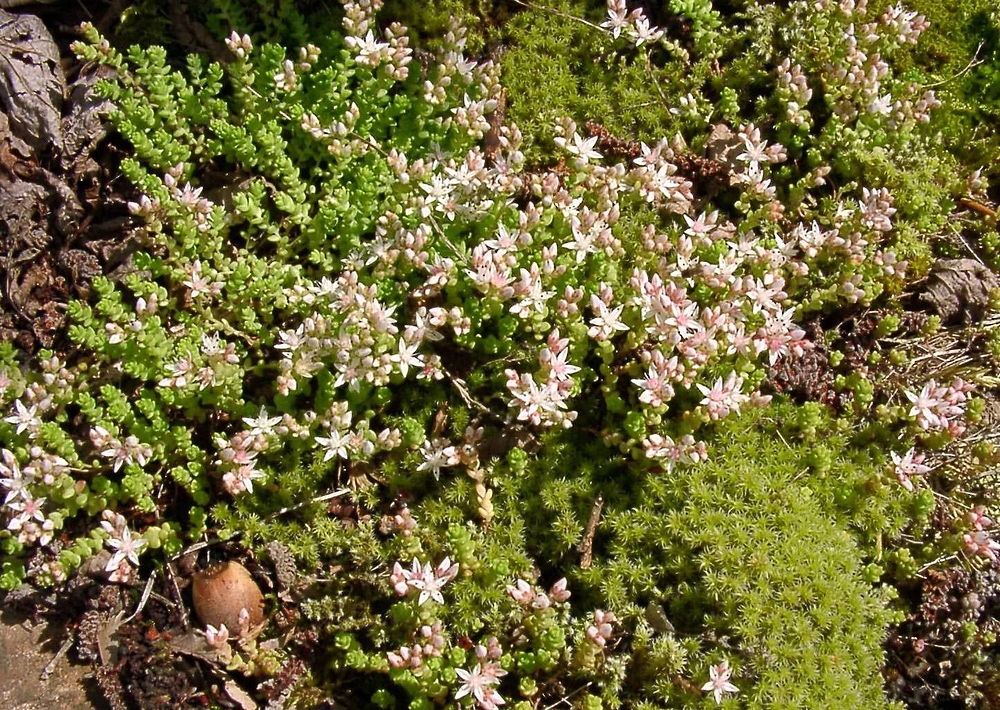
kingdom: Plantae
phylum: Tracheophyta
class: Magnoliopsida
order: Saxifragales
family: Crassulaceae
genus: Sedum
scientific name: Sedum anglicum
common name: English stonecrop
